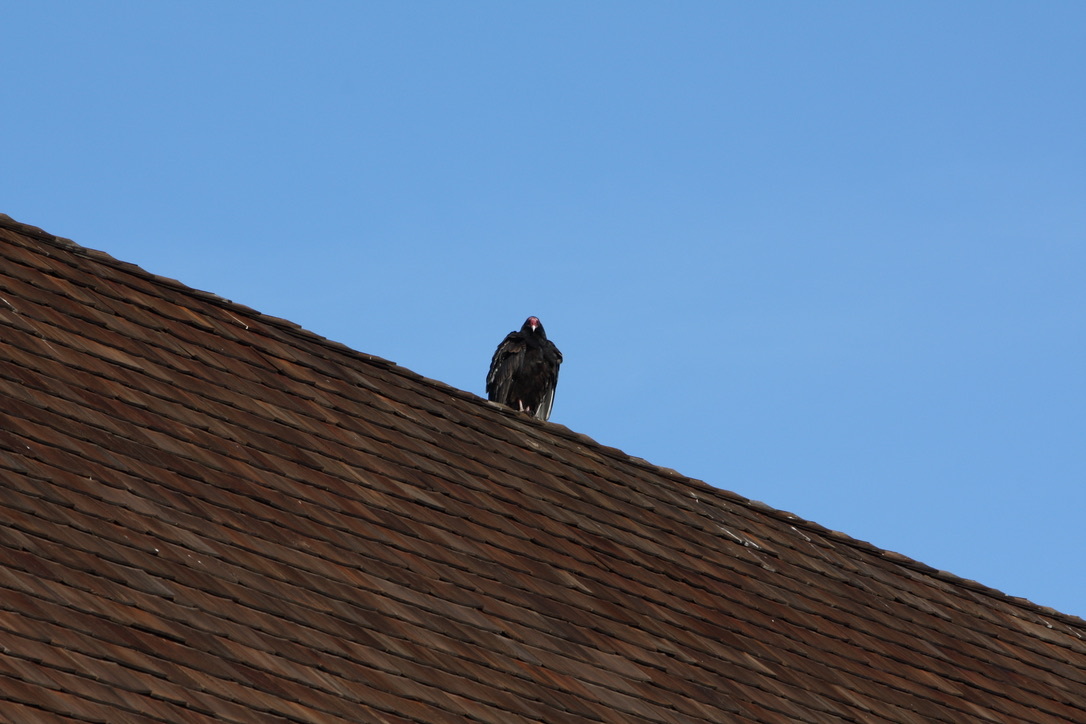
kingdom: Animalia
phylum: Chordata
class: Aves
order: Accipitriformes
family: Cathartidae
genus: Cathartes
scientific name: Cathartes aura
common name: Turkey vulture
